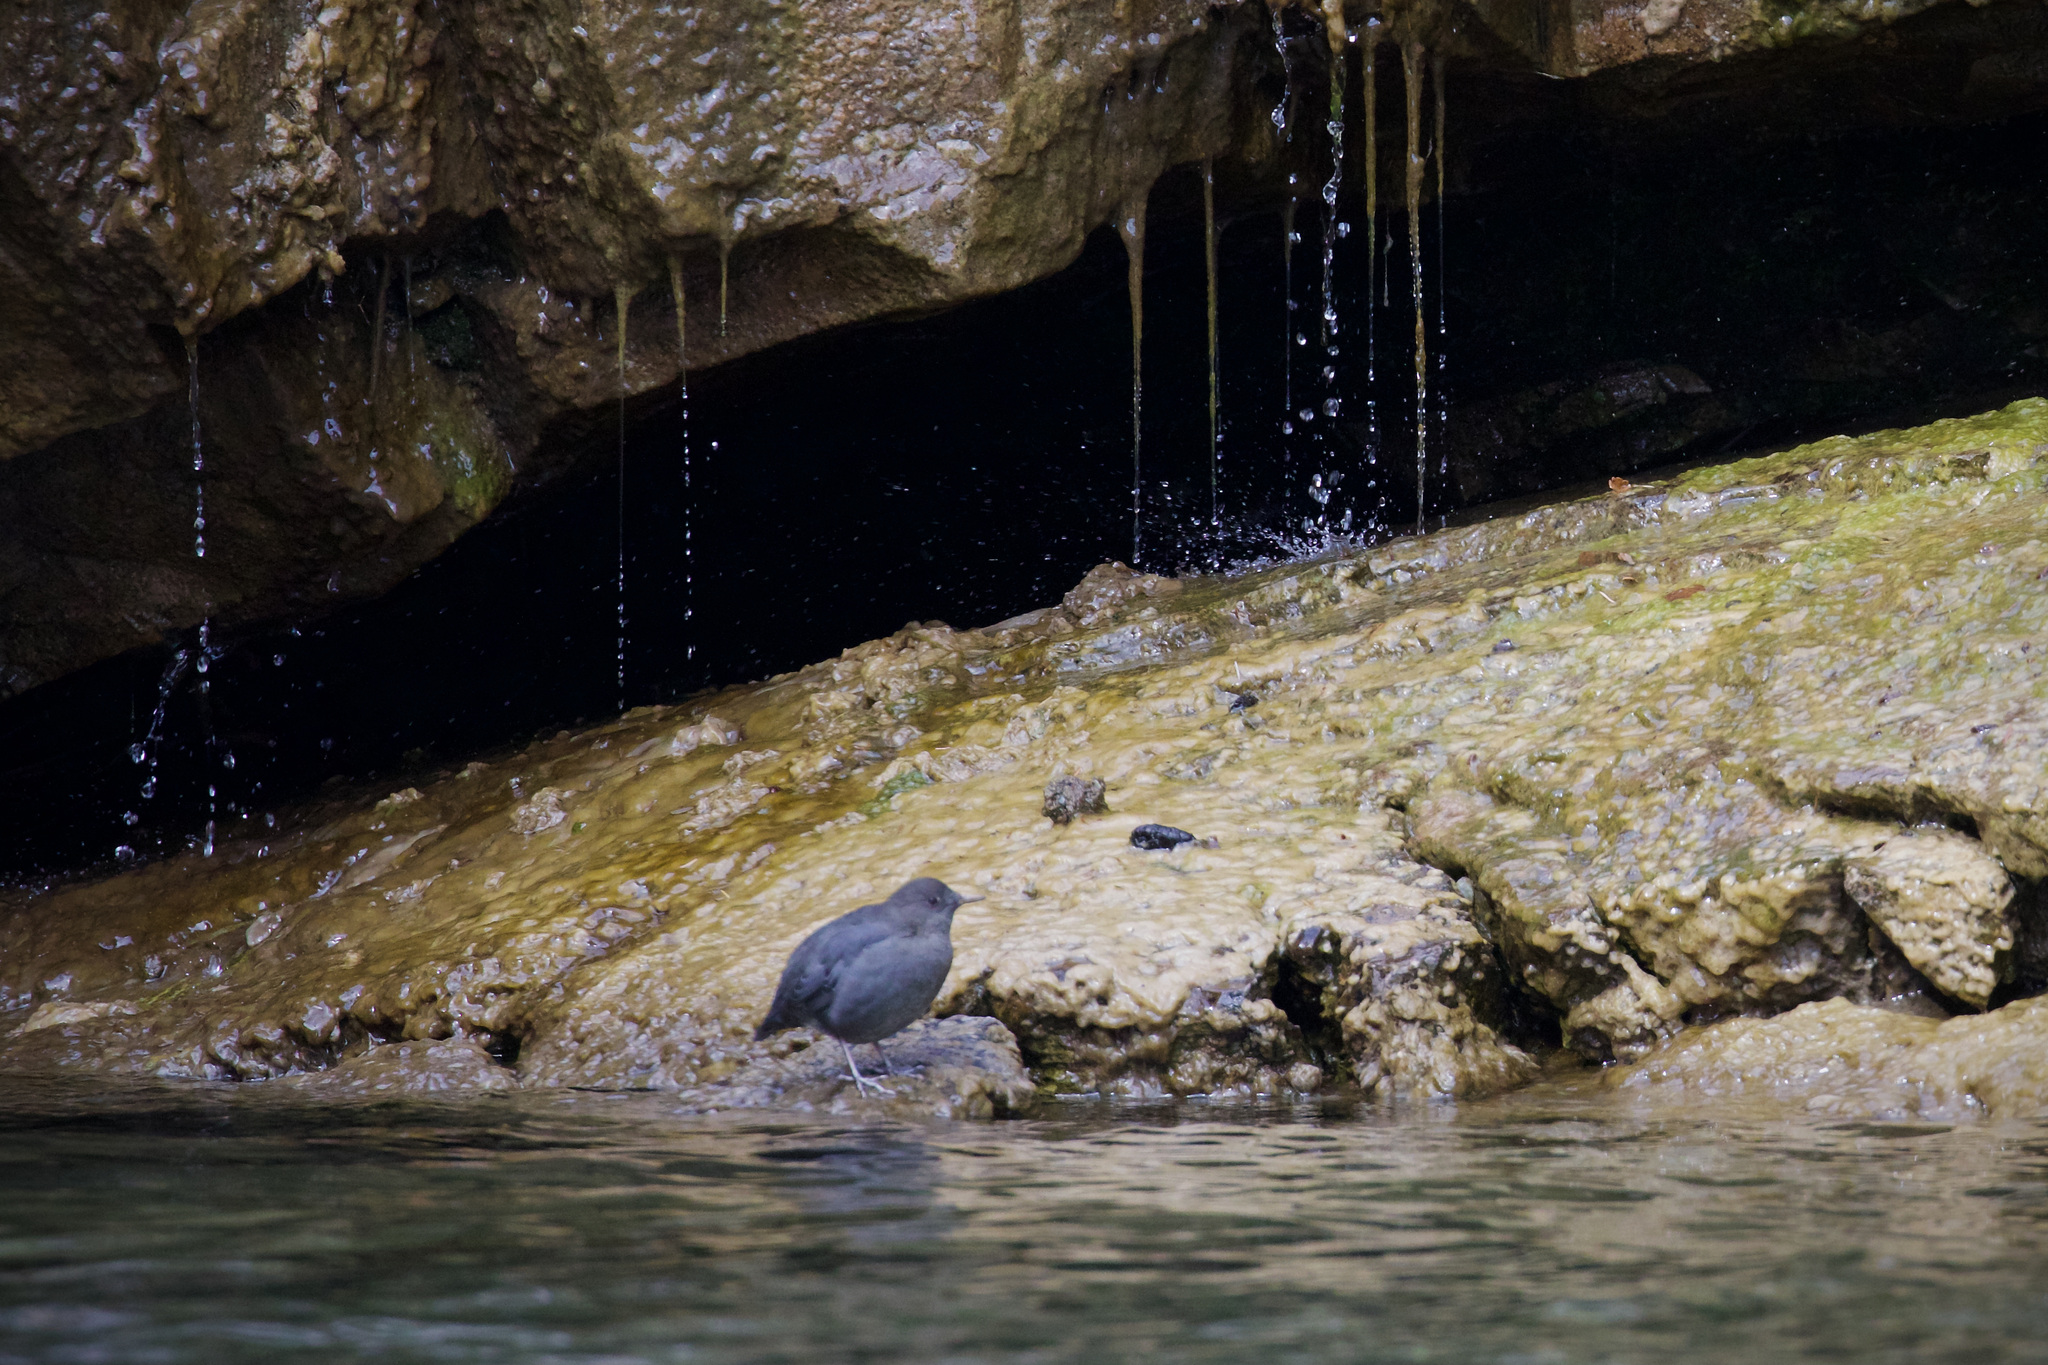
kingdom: Animalia
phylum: Chordata
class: Aves
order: Passeriformes
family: Cinclidae
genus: Cinclus
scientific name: Cinclus mexicanus
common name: American dipper
